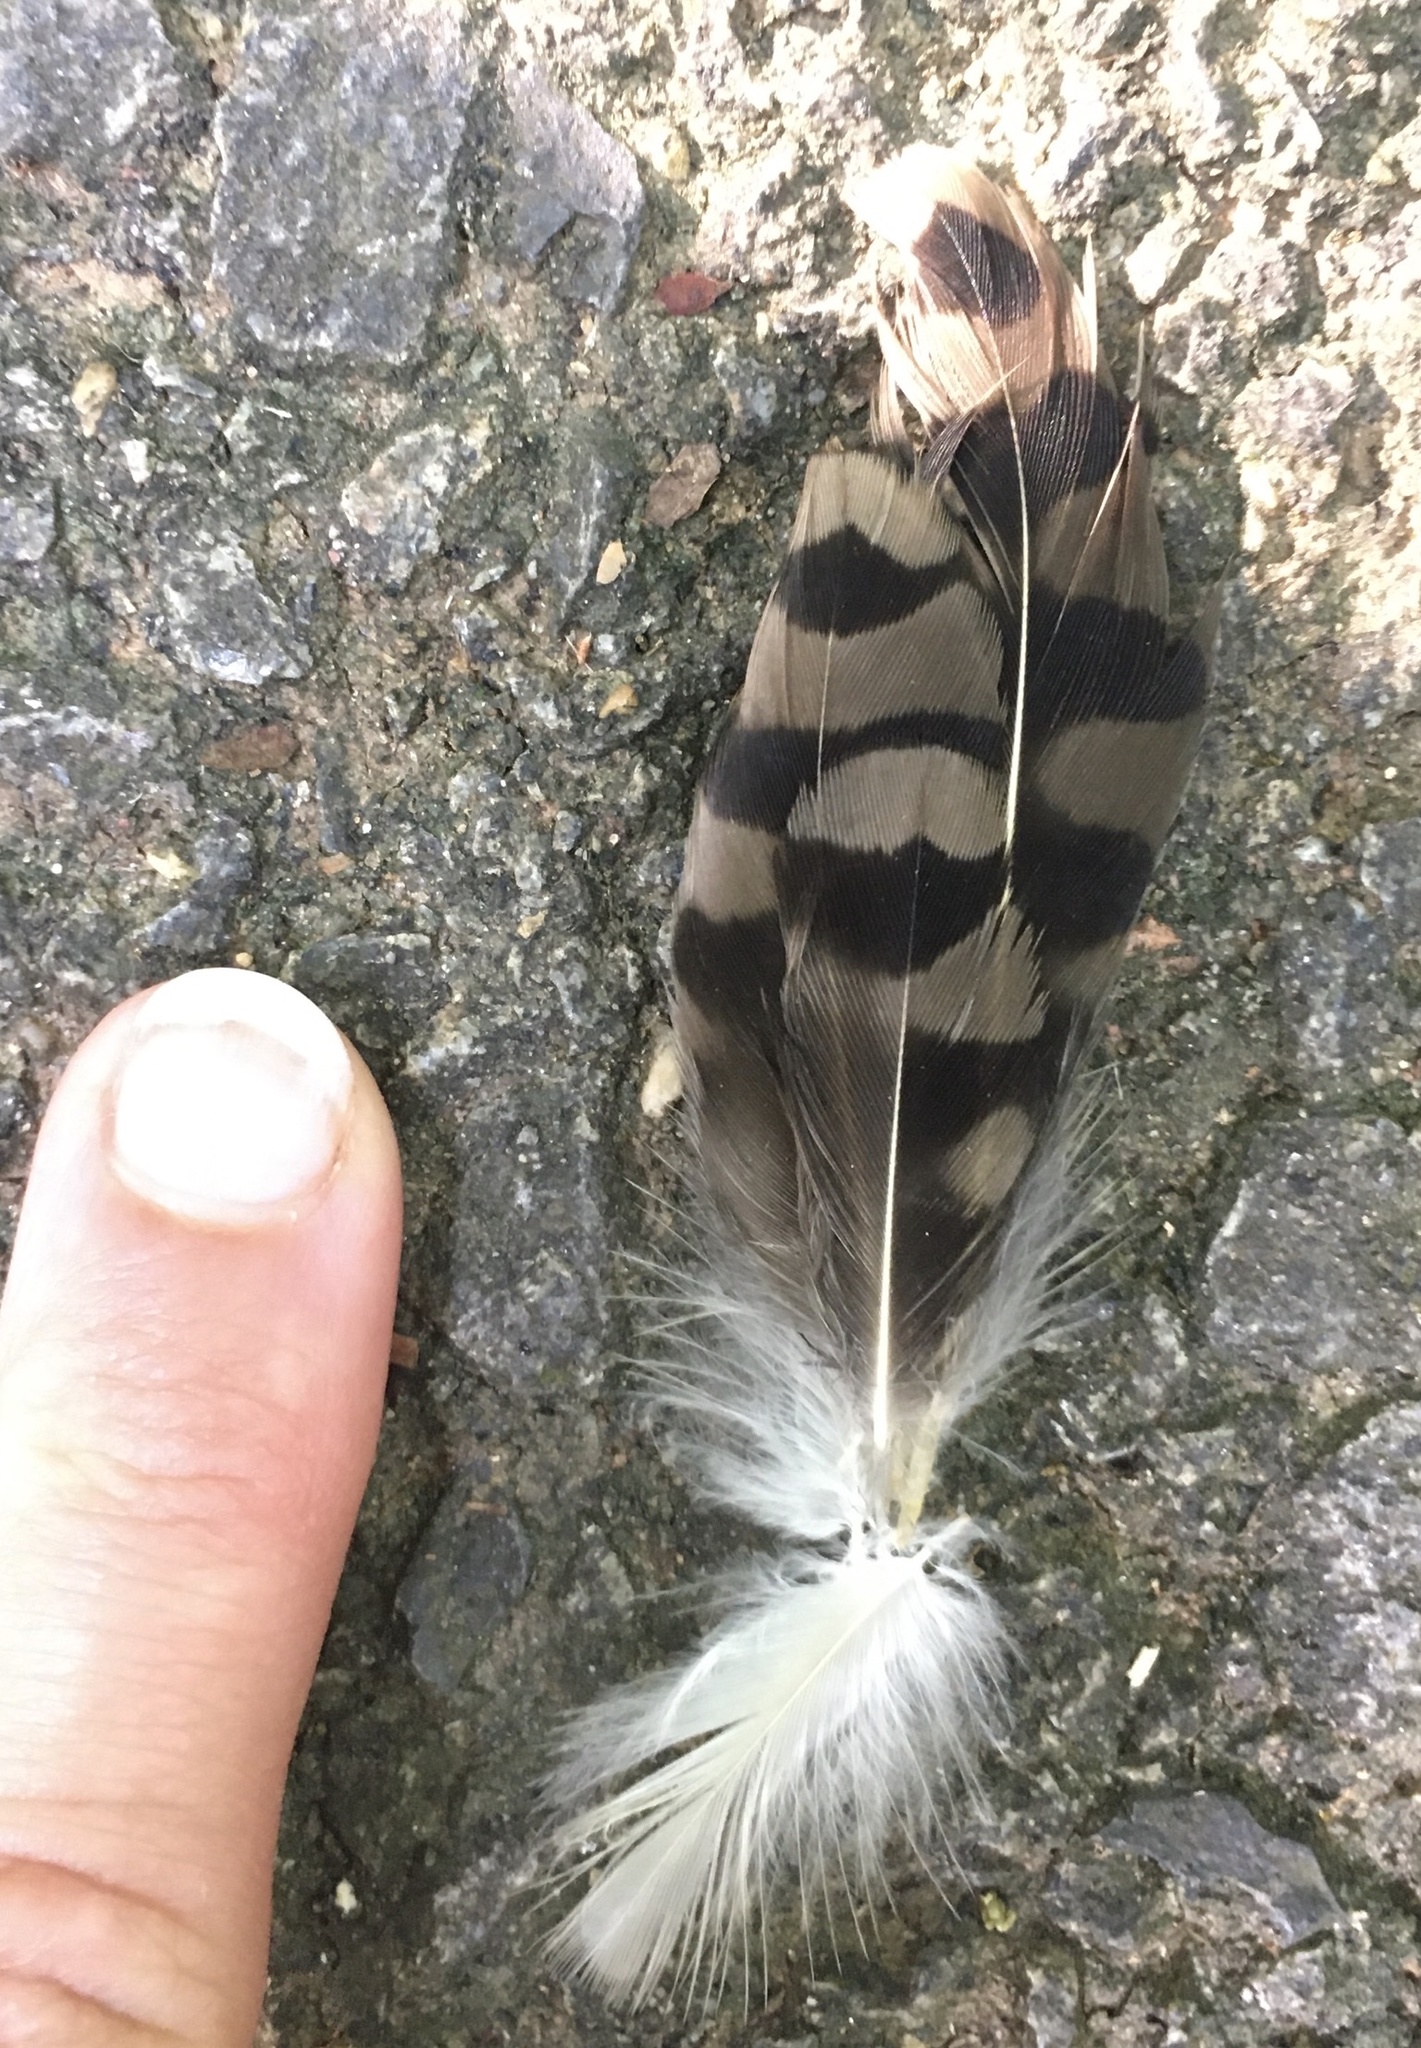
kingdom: Animalia
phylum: Chordata
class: Aves
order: Piciformes
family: Picidae
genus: Colaptes
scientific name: Colaptes auratus
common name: Northern flicker
